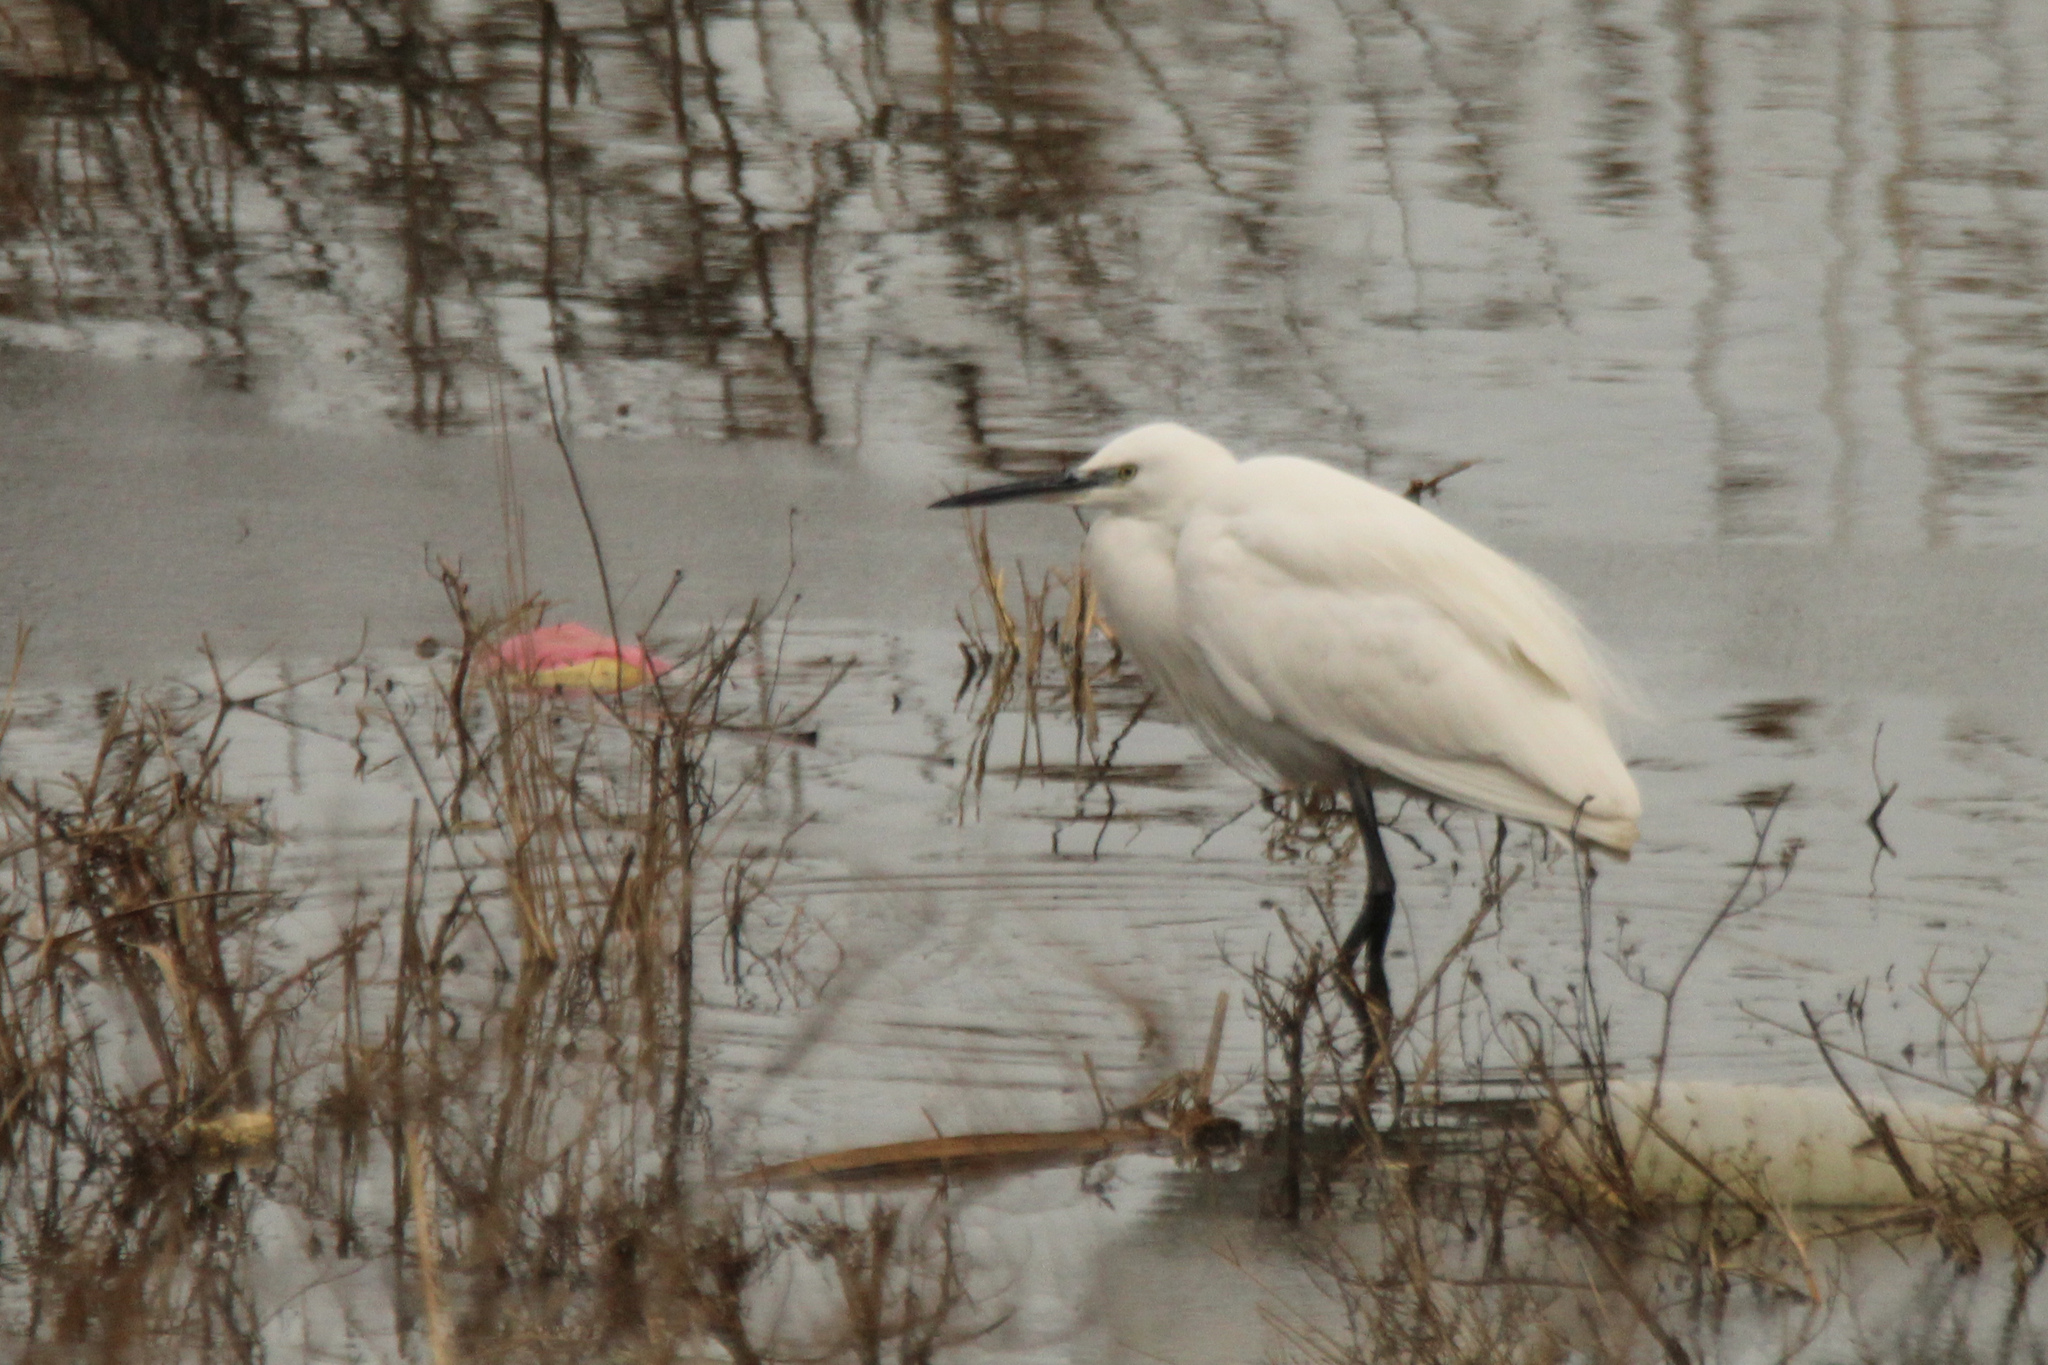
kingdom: Animalia
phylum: Chordata
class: Aves
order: Pelecaniformes
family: Ardeidae
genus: Egretta
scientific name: Egretta garzetta
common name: Little egret
